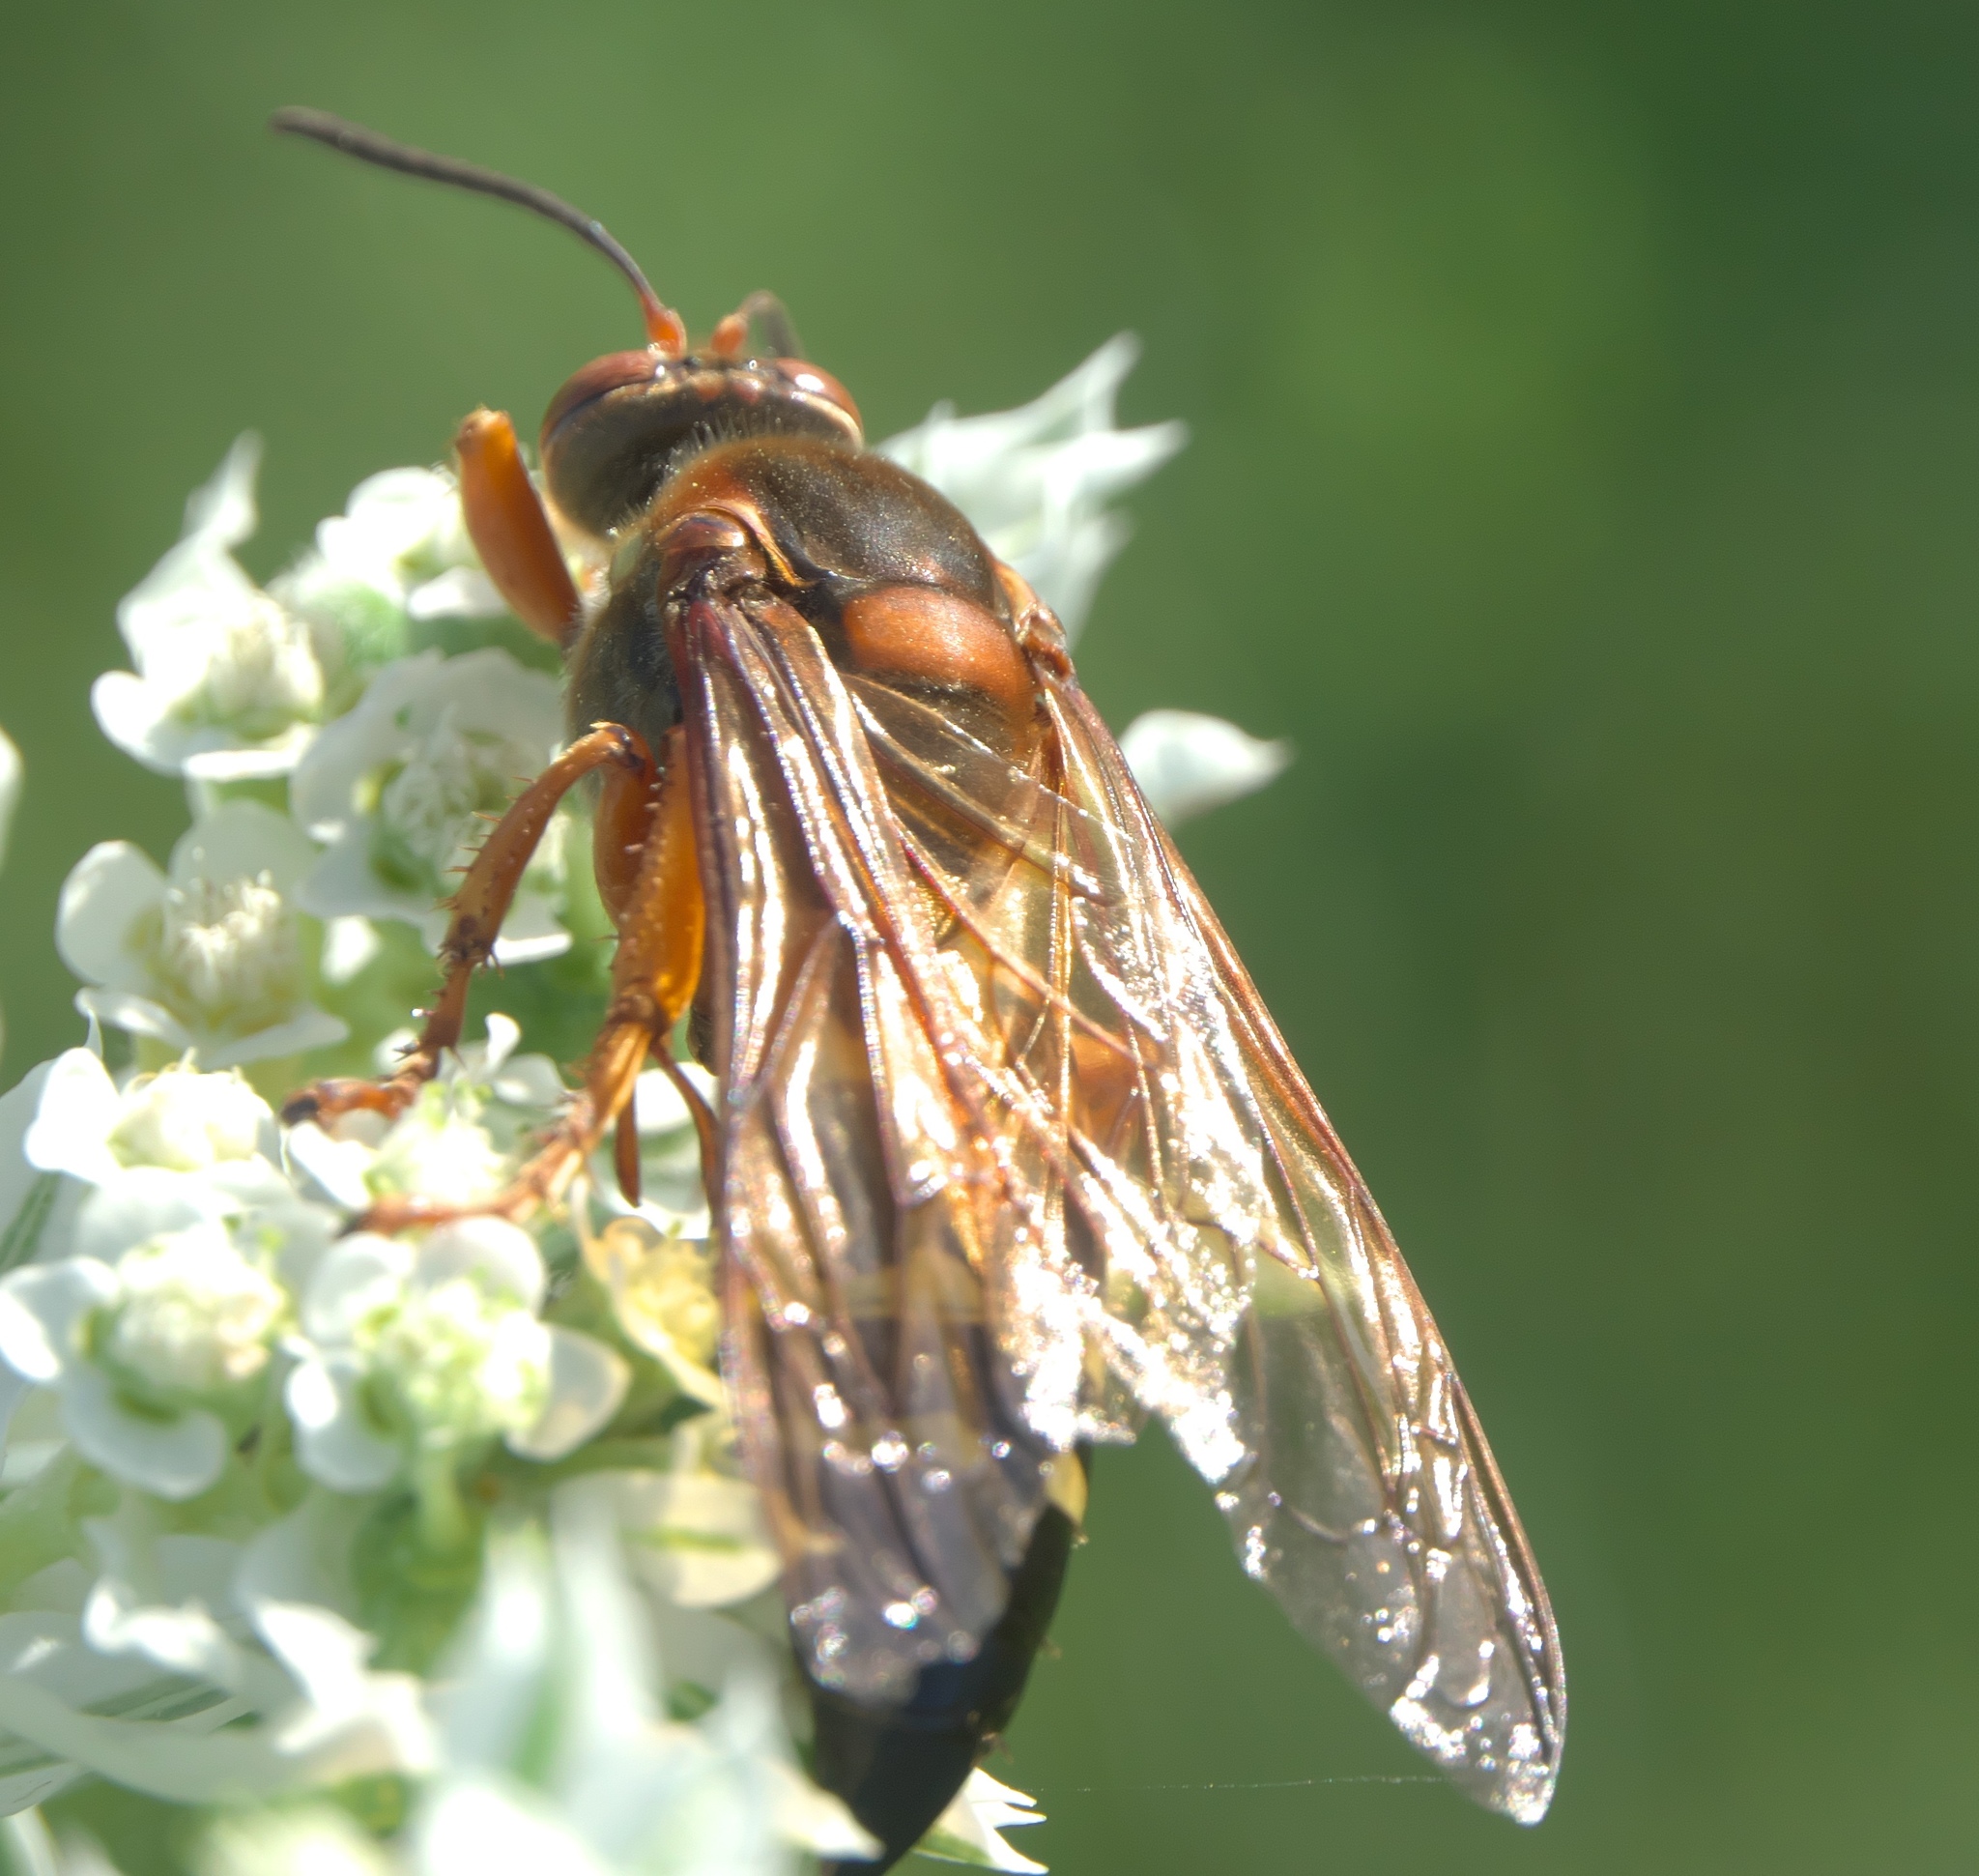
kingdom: Animalia
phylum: Arthropoda
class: Insecta
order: Hymenoptera
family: Crabronidae
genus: Sphecius
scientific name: Sphecius speciosus
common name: Cicada killer
